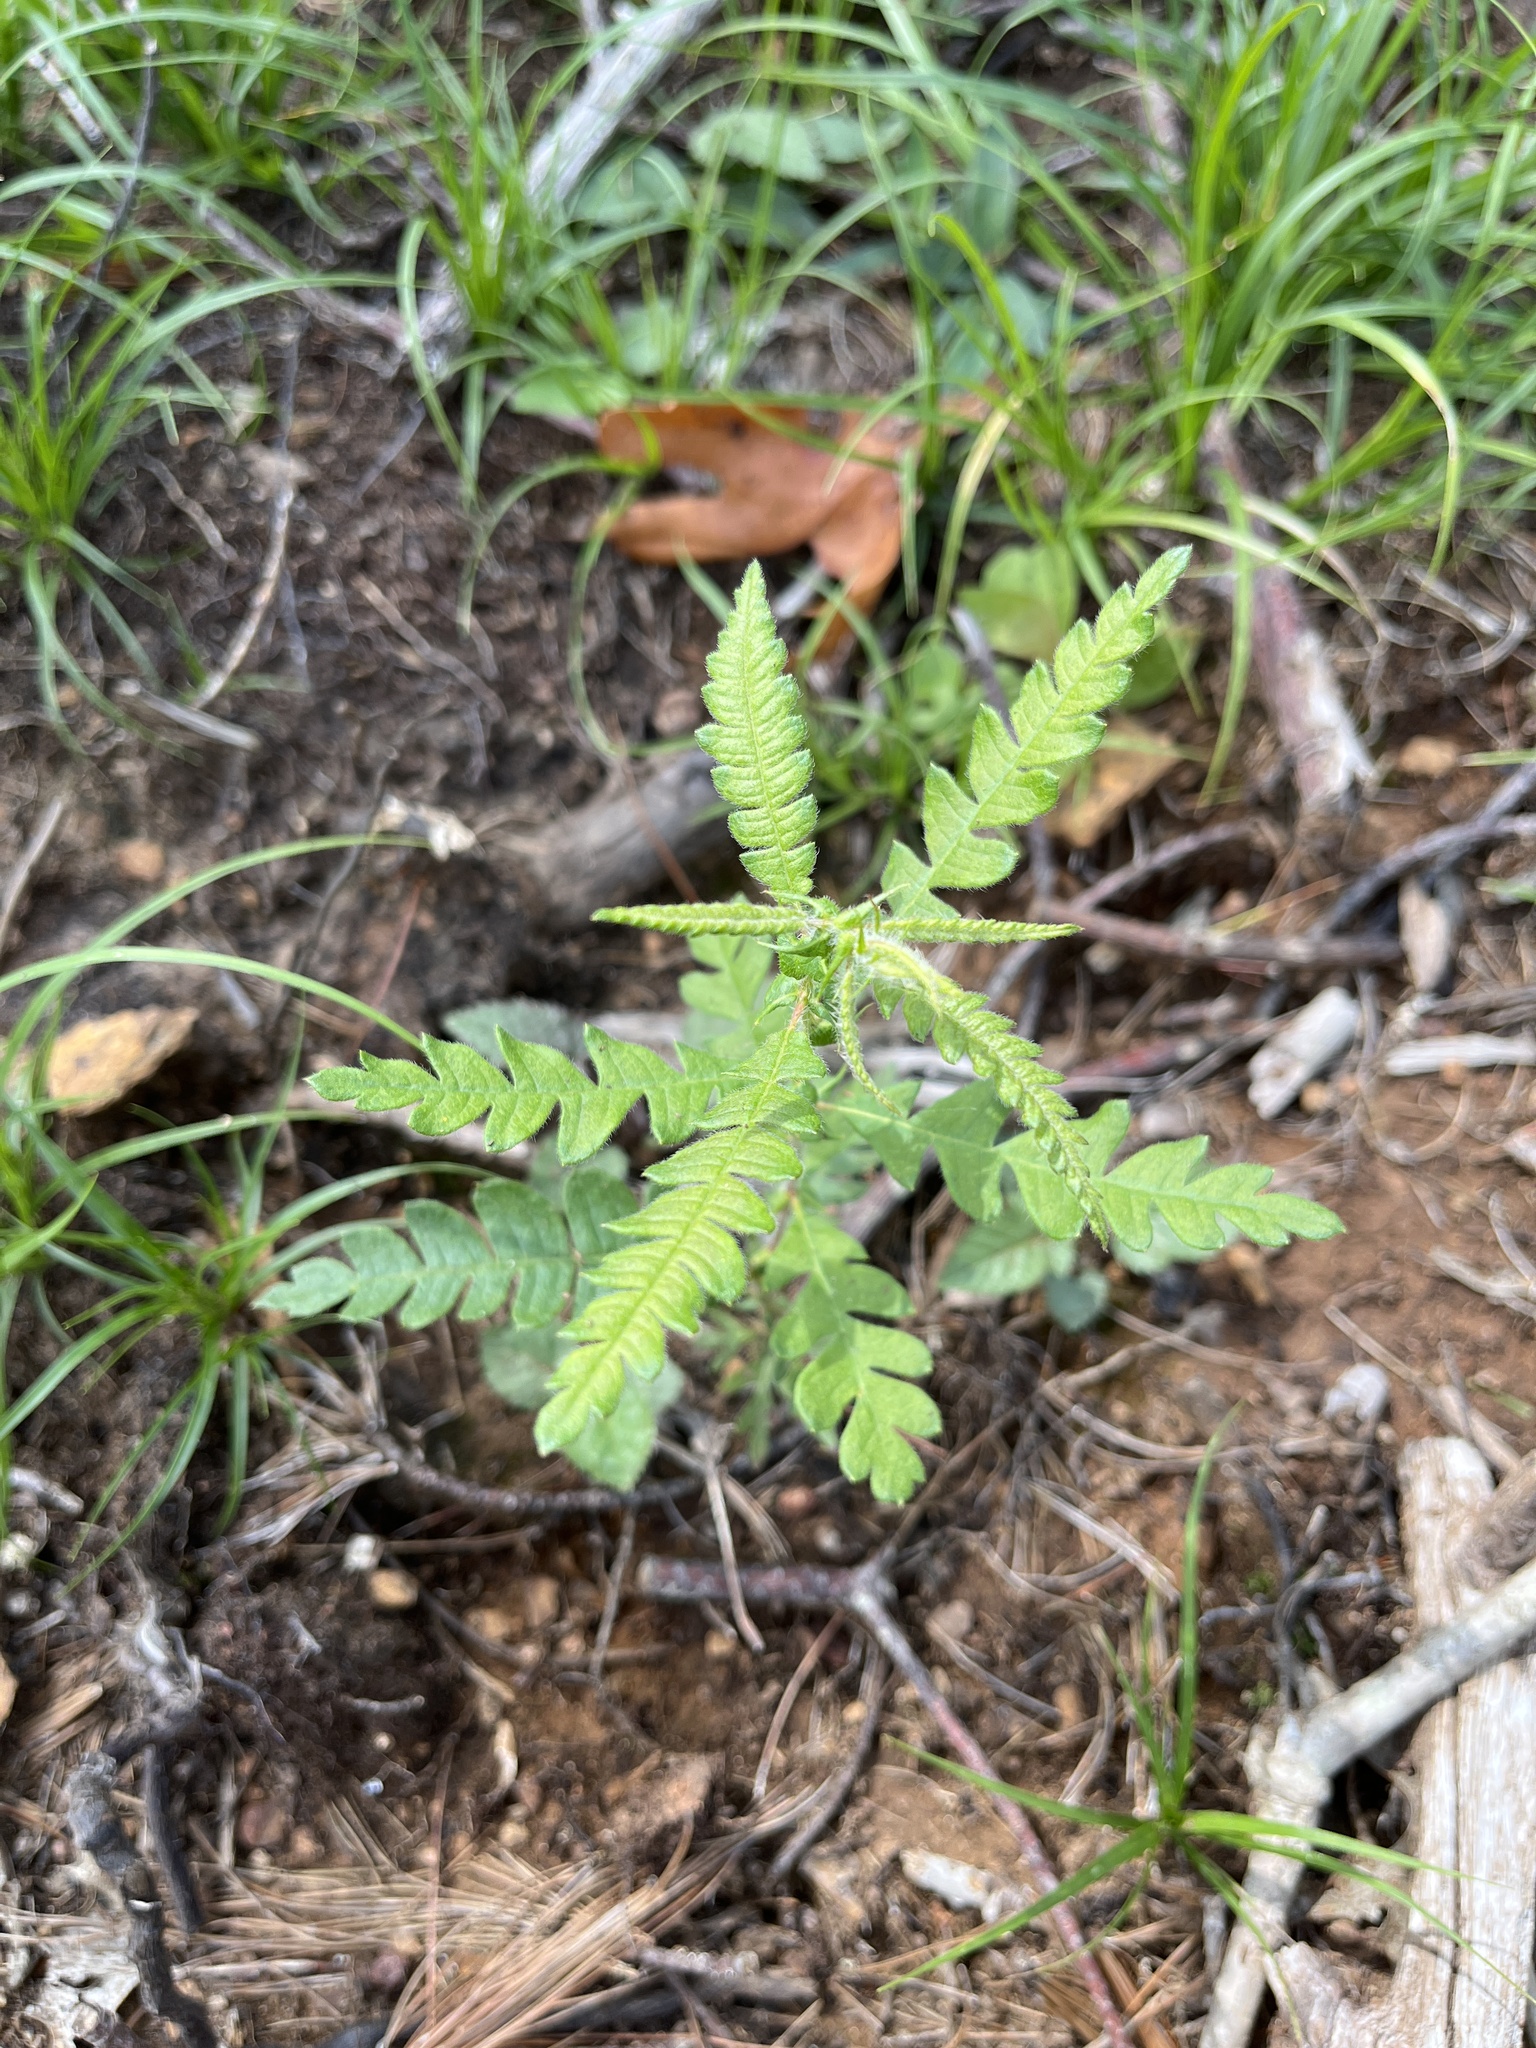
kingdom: Plantae
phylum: Tracheophyta
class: Magnoliopsida
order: Fagales
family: Myricaceae
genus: Comptonia
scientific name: Comptonia peregrina
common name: Sweet-fern
